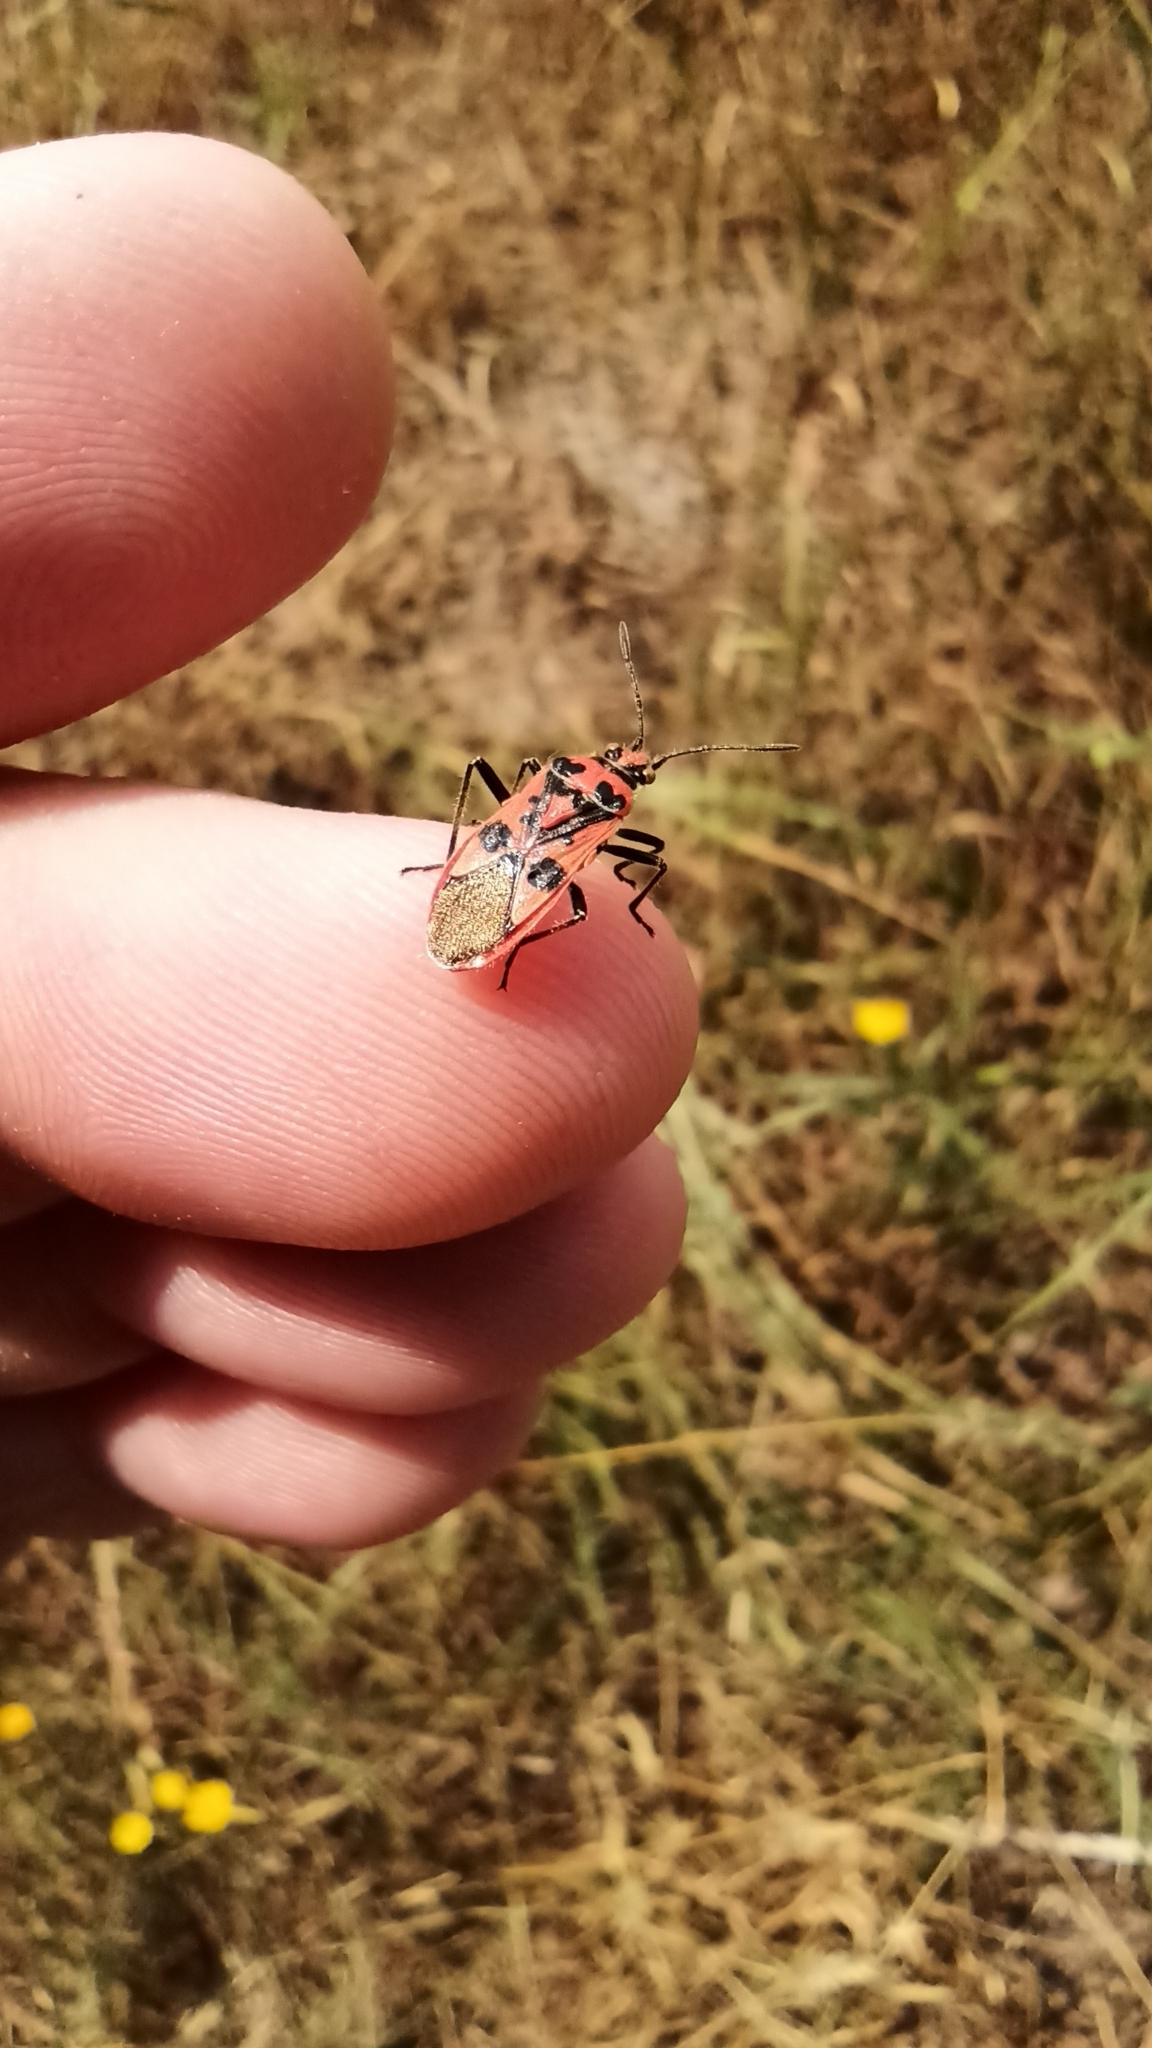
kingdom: Animalia
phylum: Arthropoda
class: Insecta
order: Hemiptera
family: Rhopalidae
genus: Corizus
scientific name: Corizus hyoscyami
